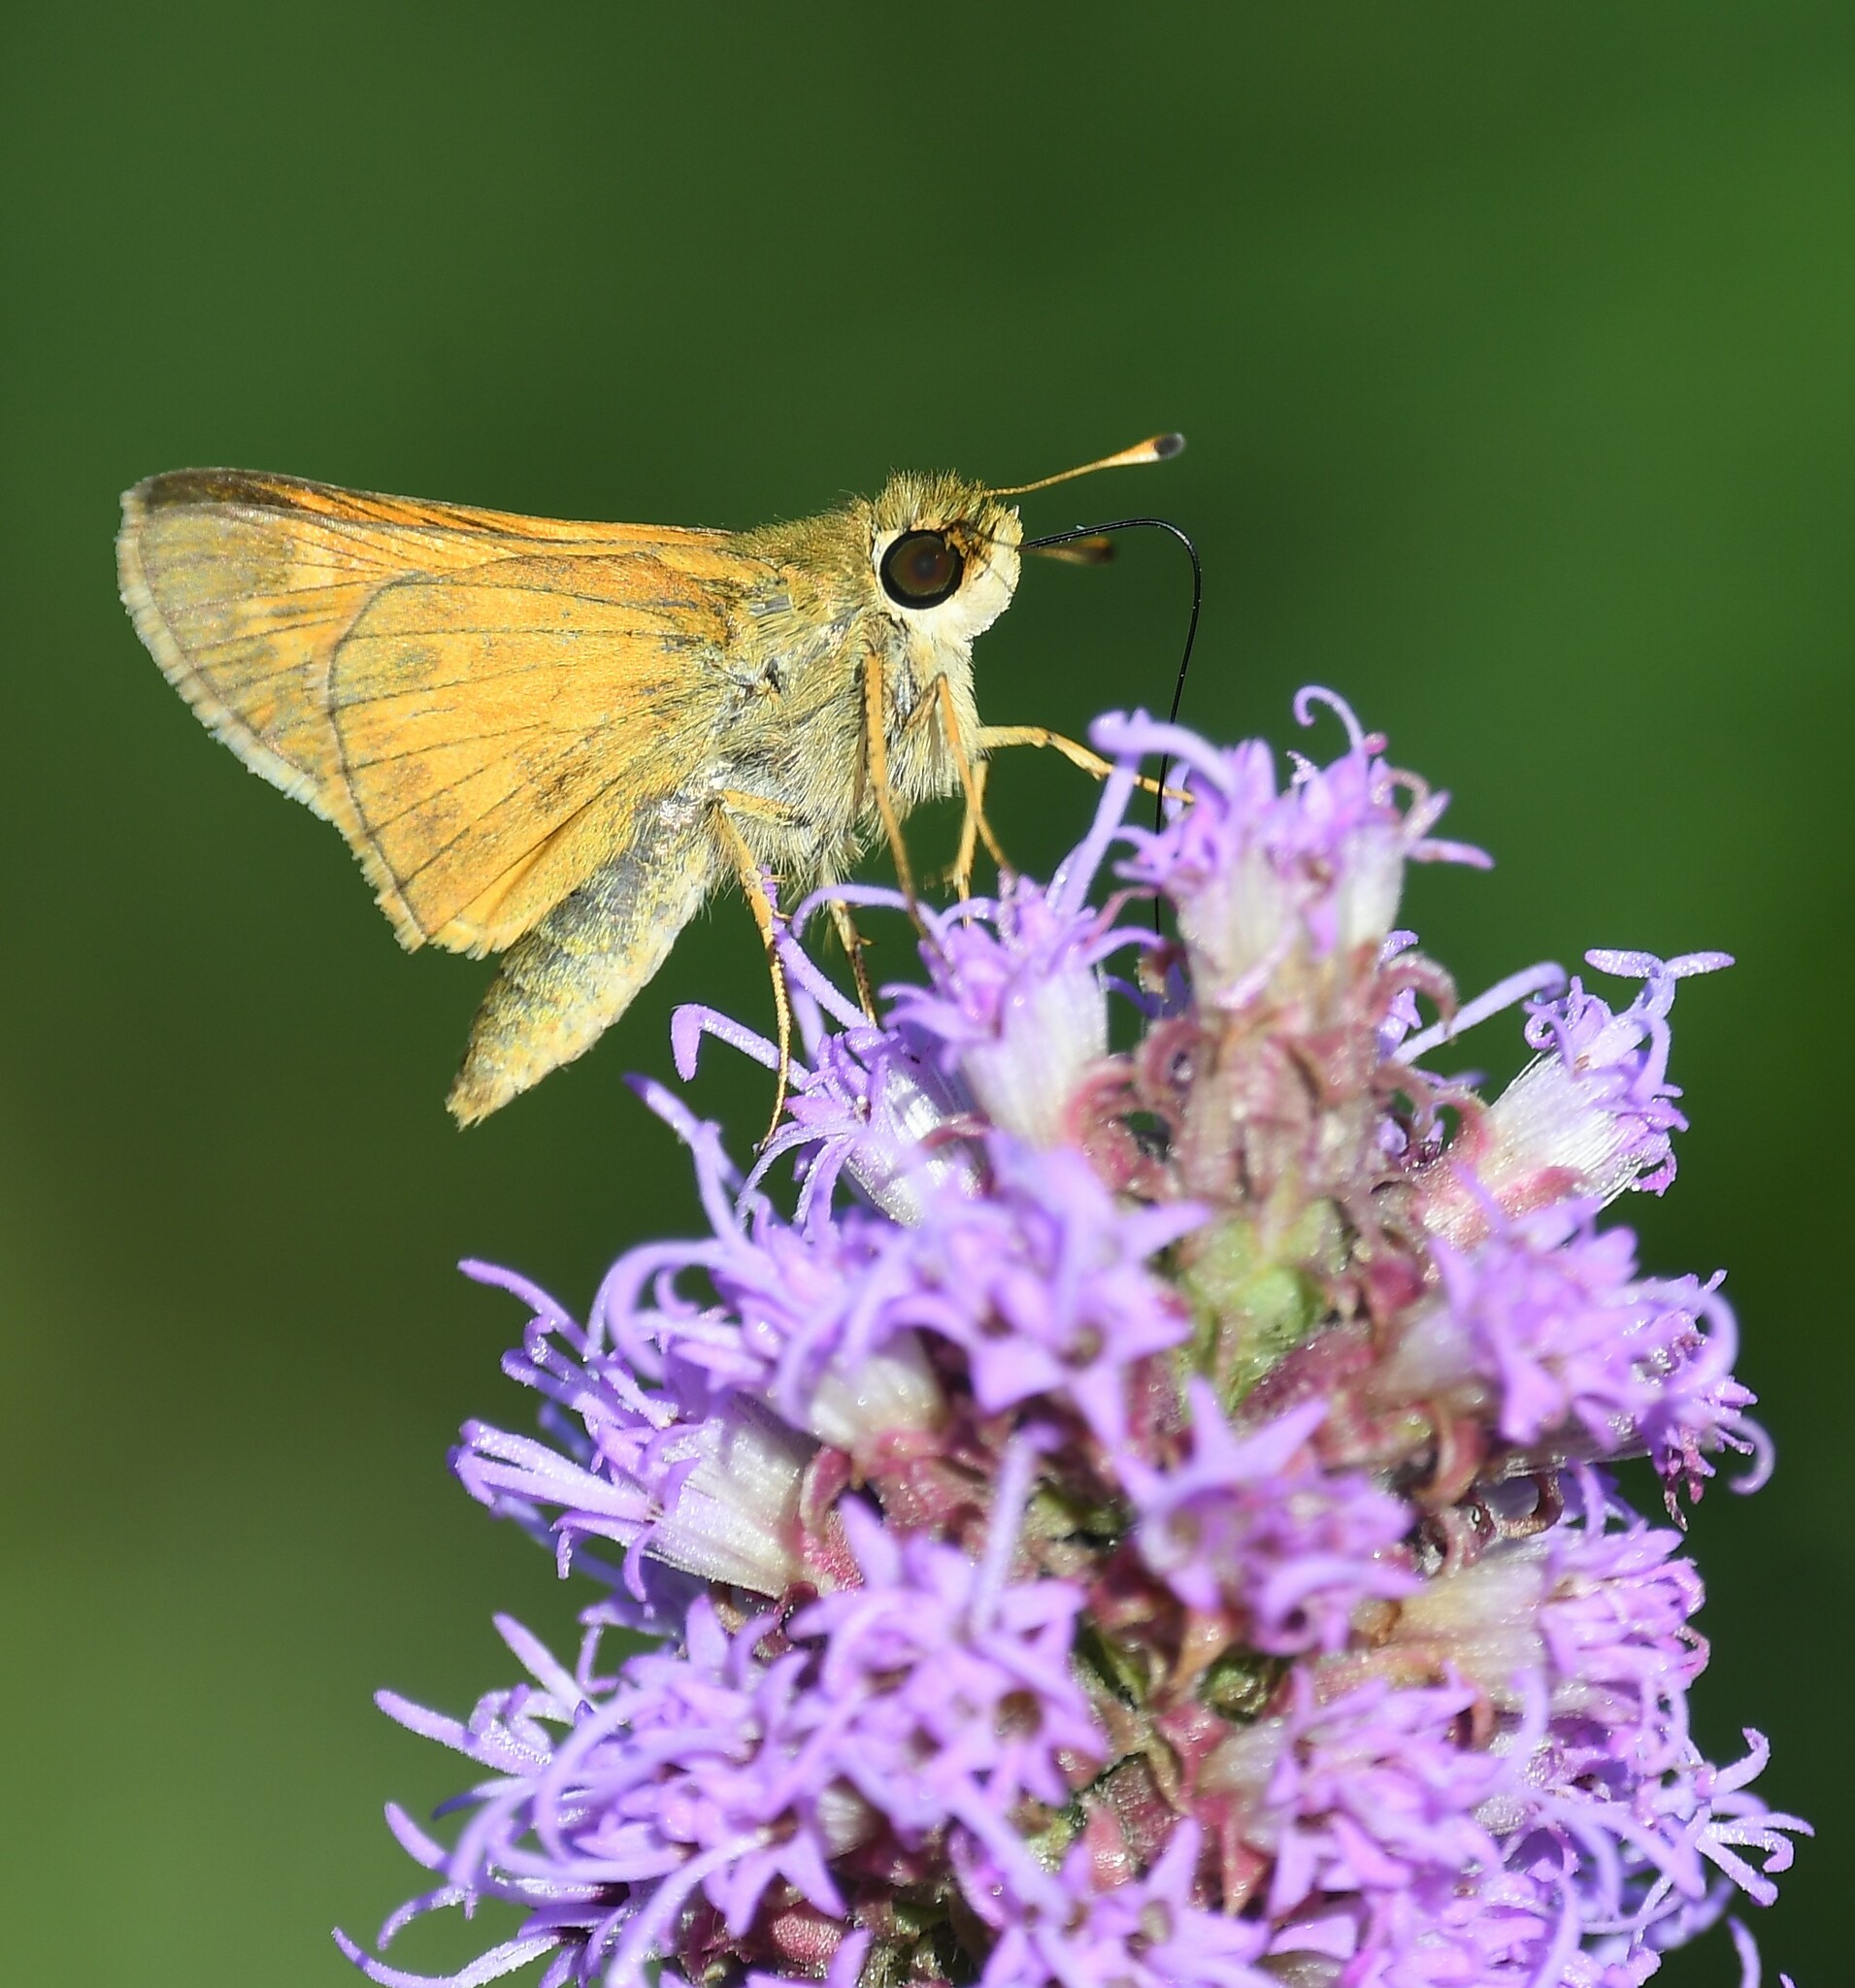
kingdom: Animalia
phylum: Arthropoda
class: Insecta
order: Lepidoptera
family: Hesperiidae
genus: Atalopedes
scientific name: Atalopedes
